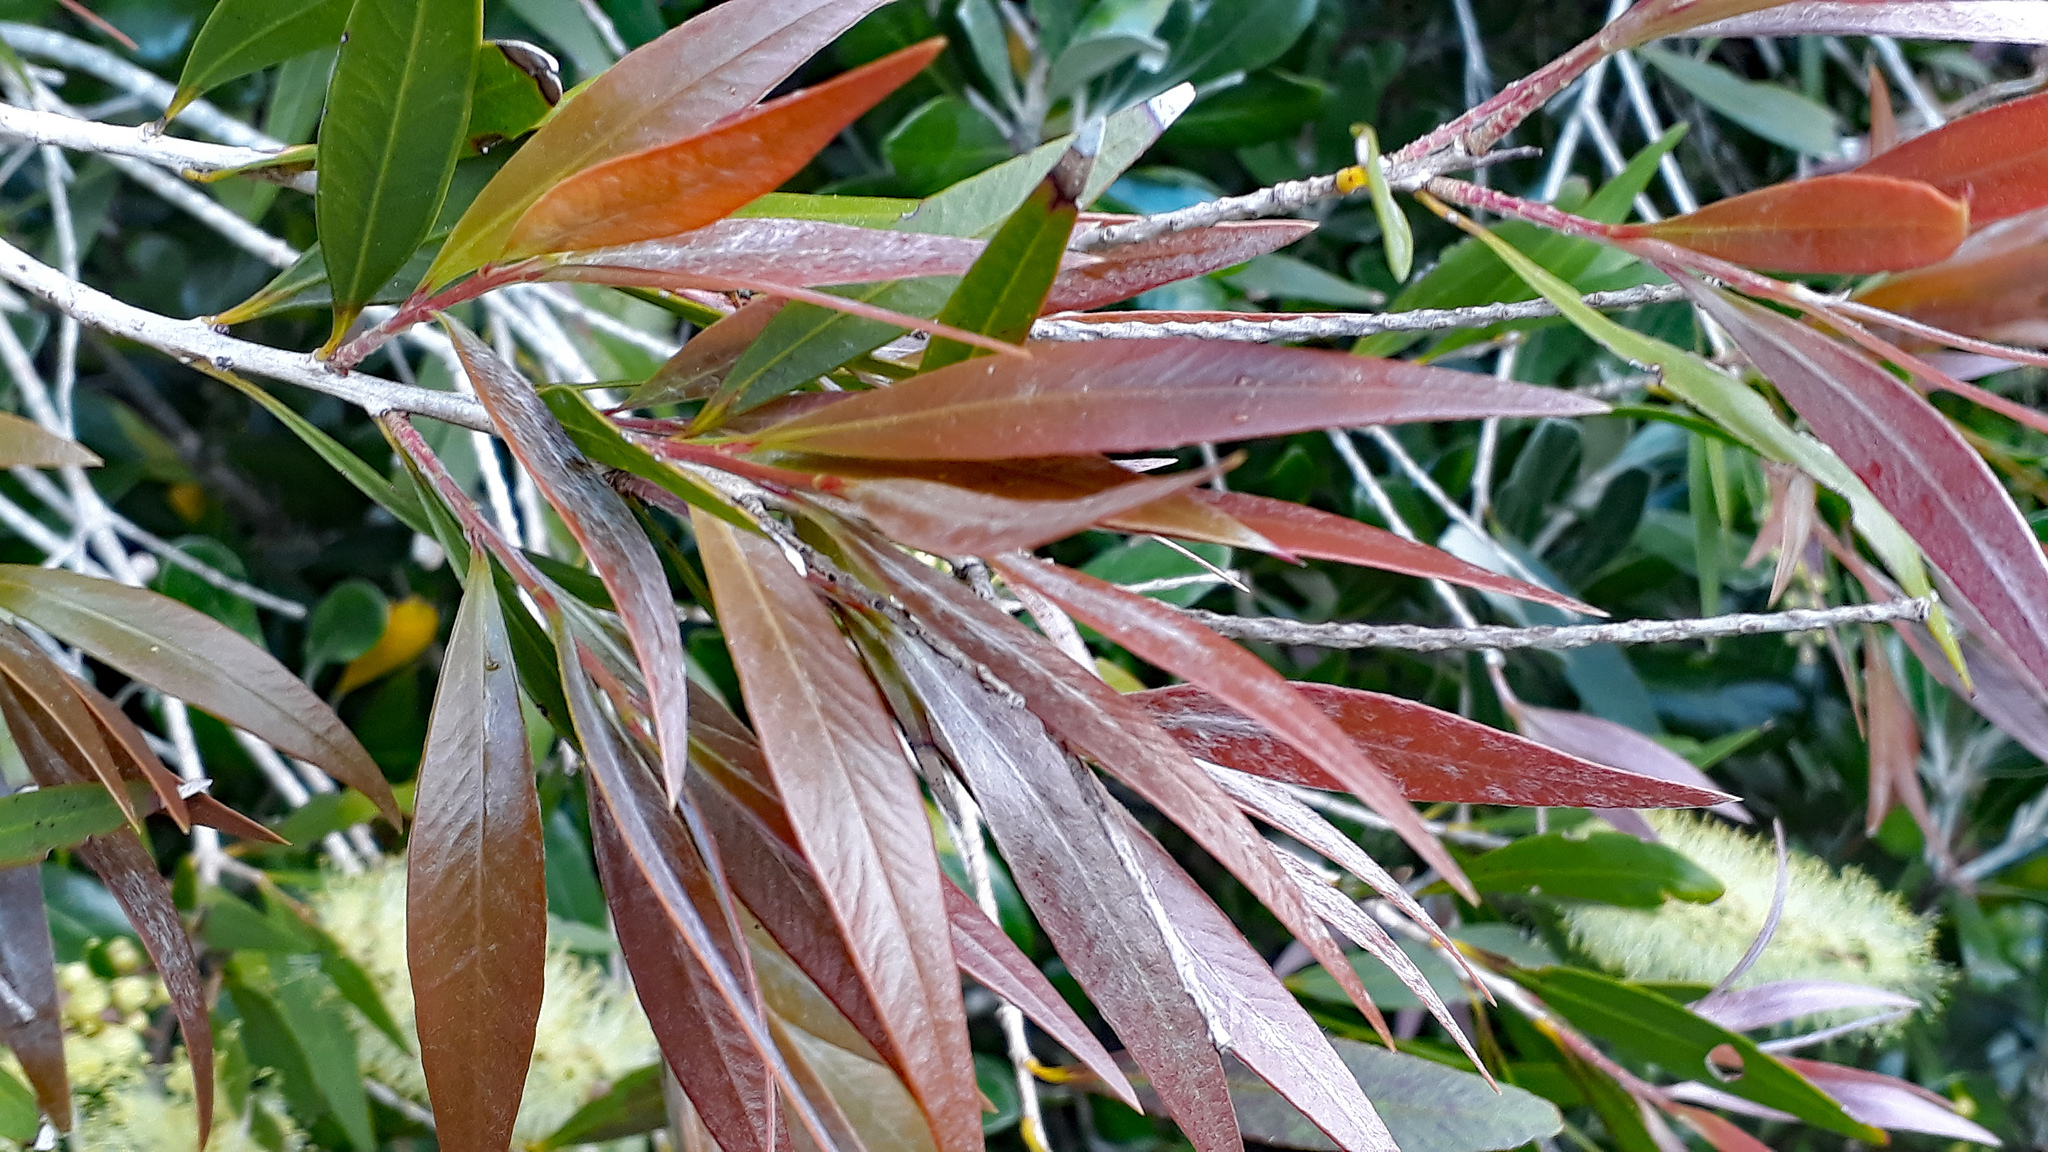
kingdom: Plantae
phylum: Tracheophyta
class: Magnoliopsida
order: Myrtales
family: Myrtaceae
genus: Callistemon
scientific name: Callistemon salignus
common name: White bottlebrush
